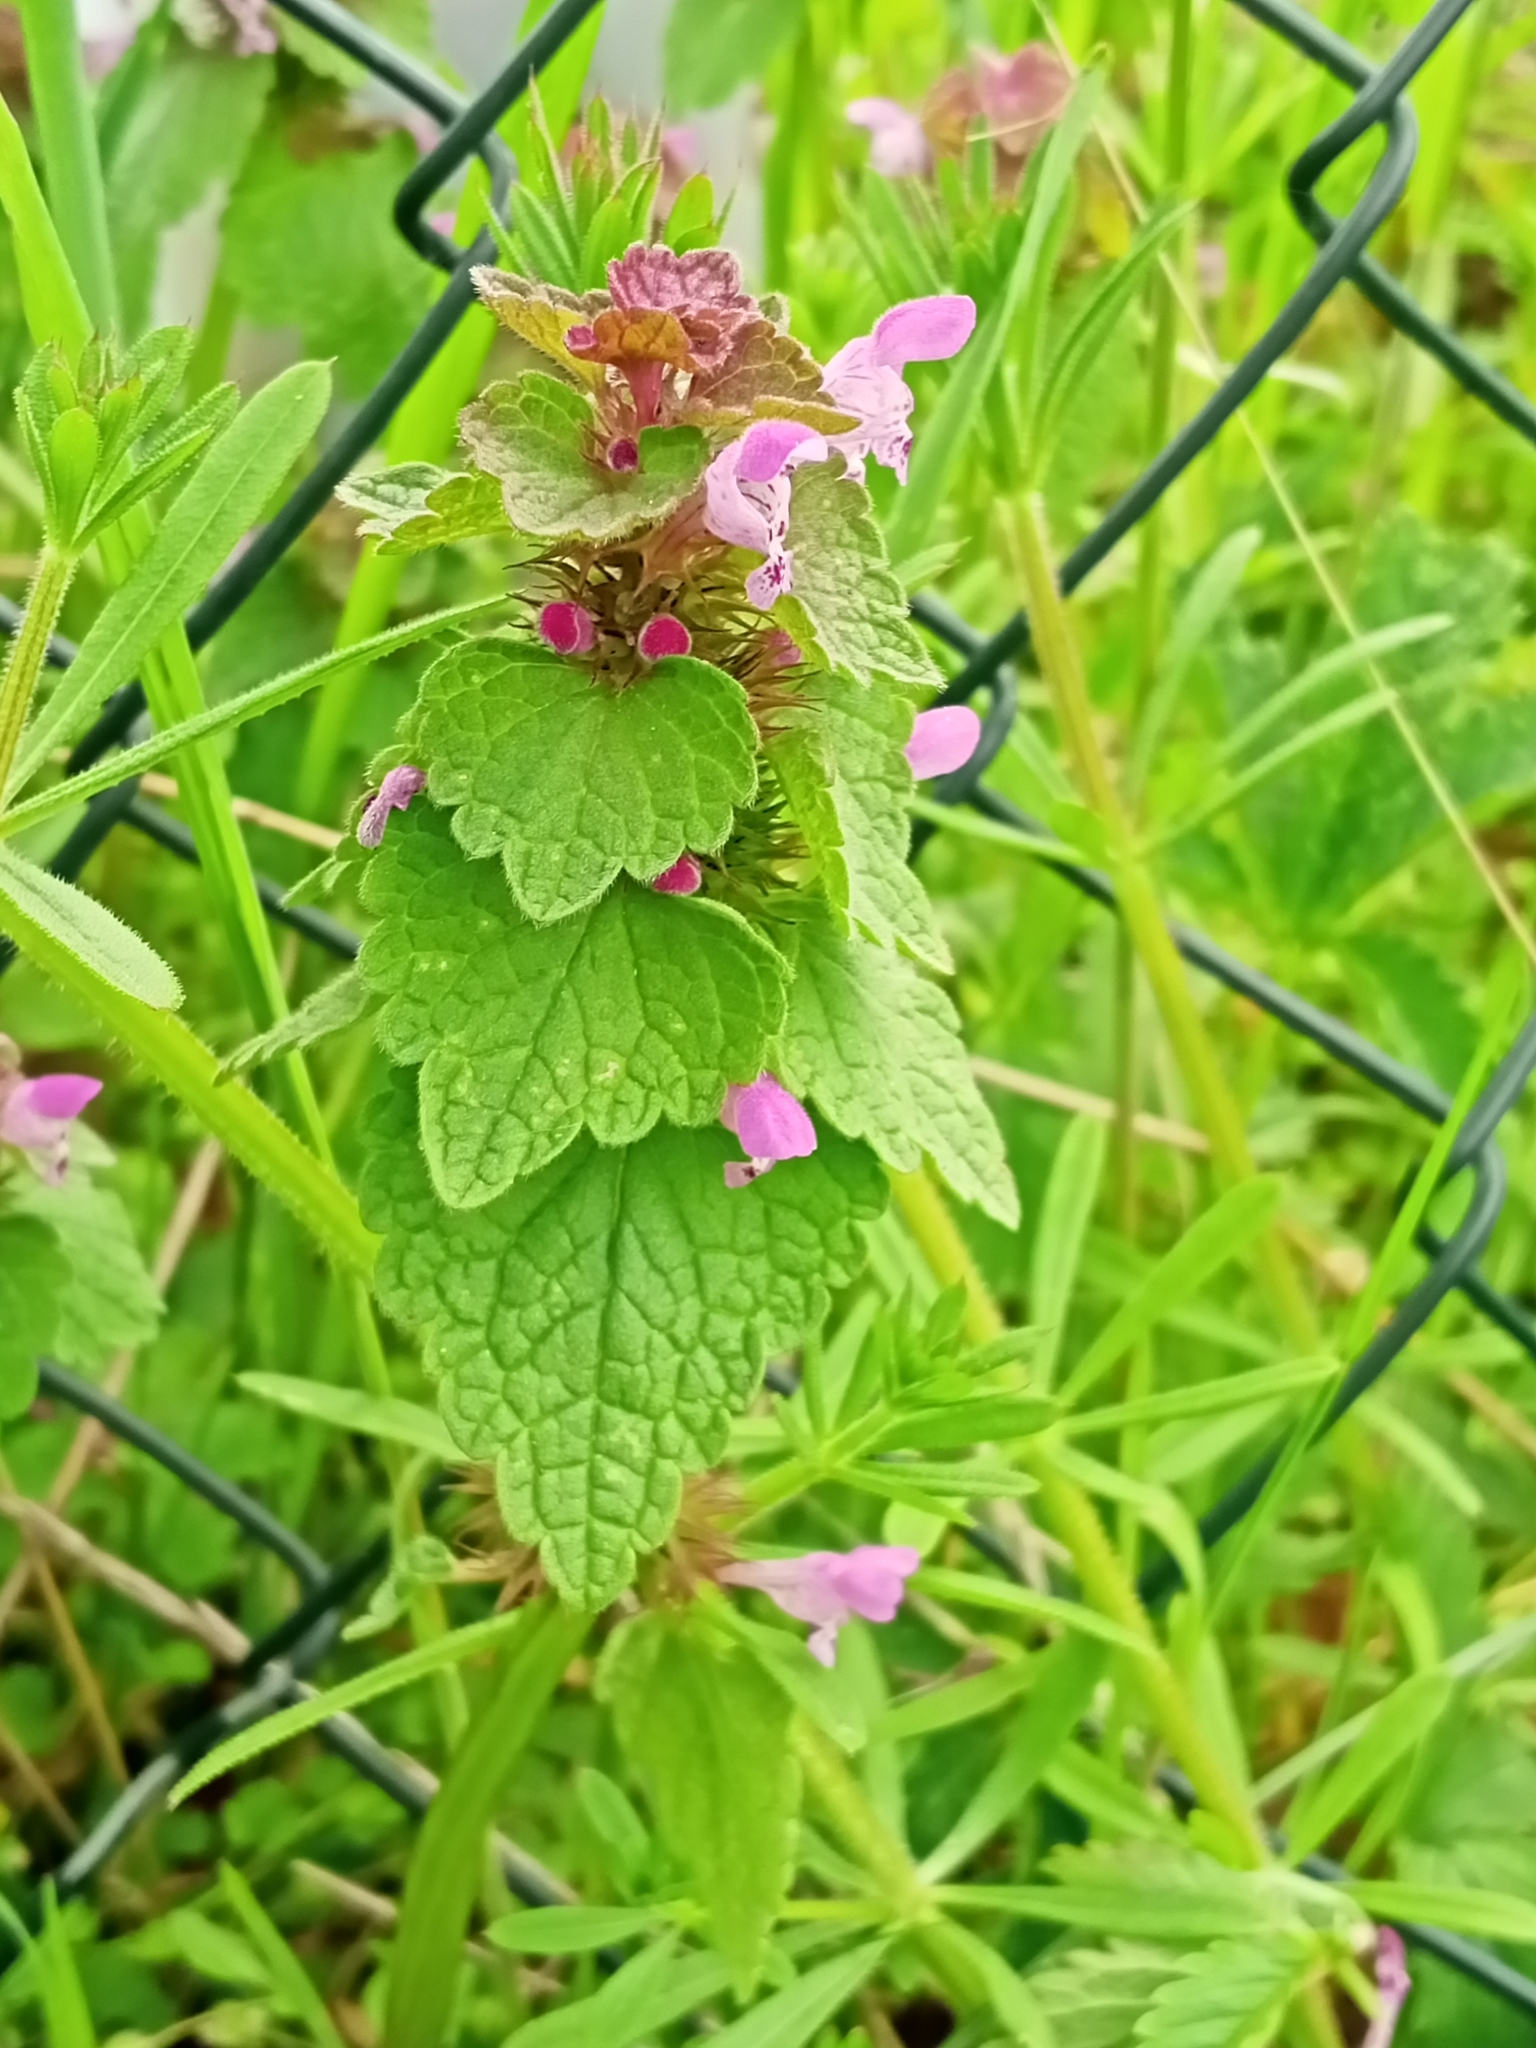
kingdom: Plantae
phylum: Tracheophyta
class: Magnoliopsida
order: Lamiales
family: Lamiaceae
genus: Lamium
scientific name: Lamium purpureum
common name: Red dead-nettle
